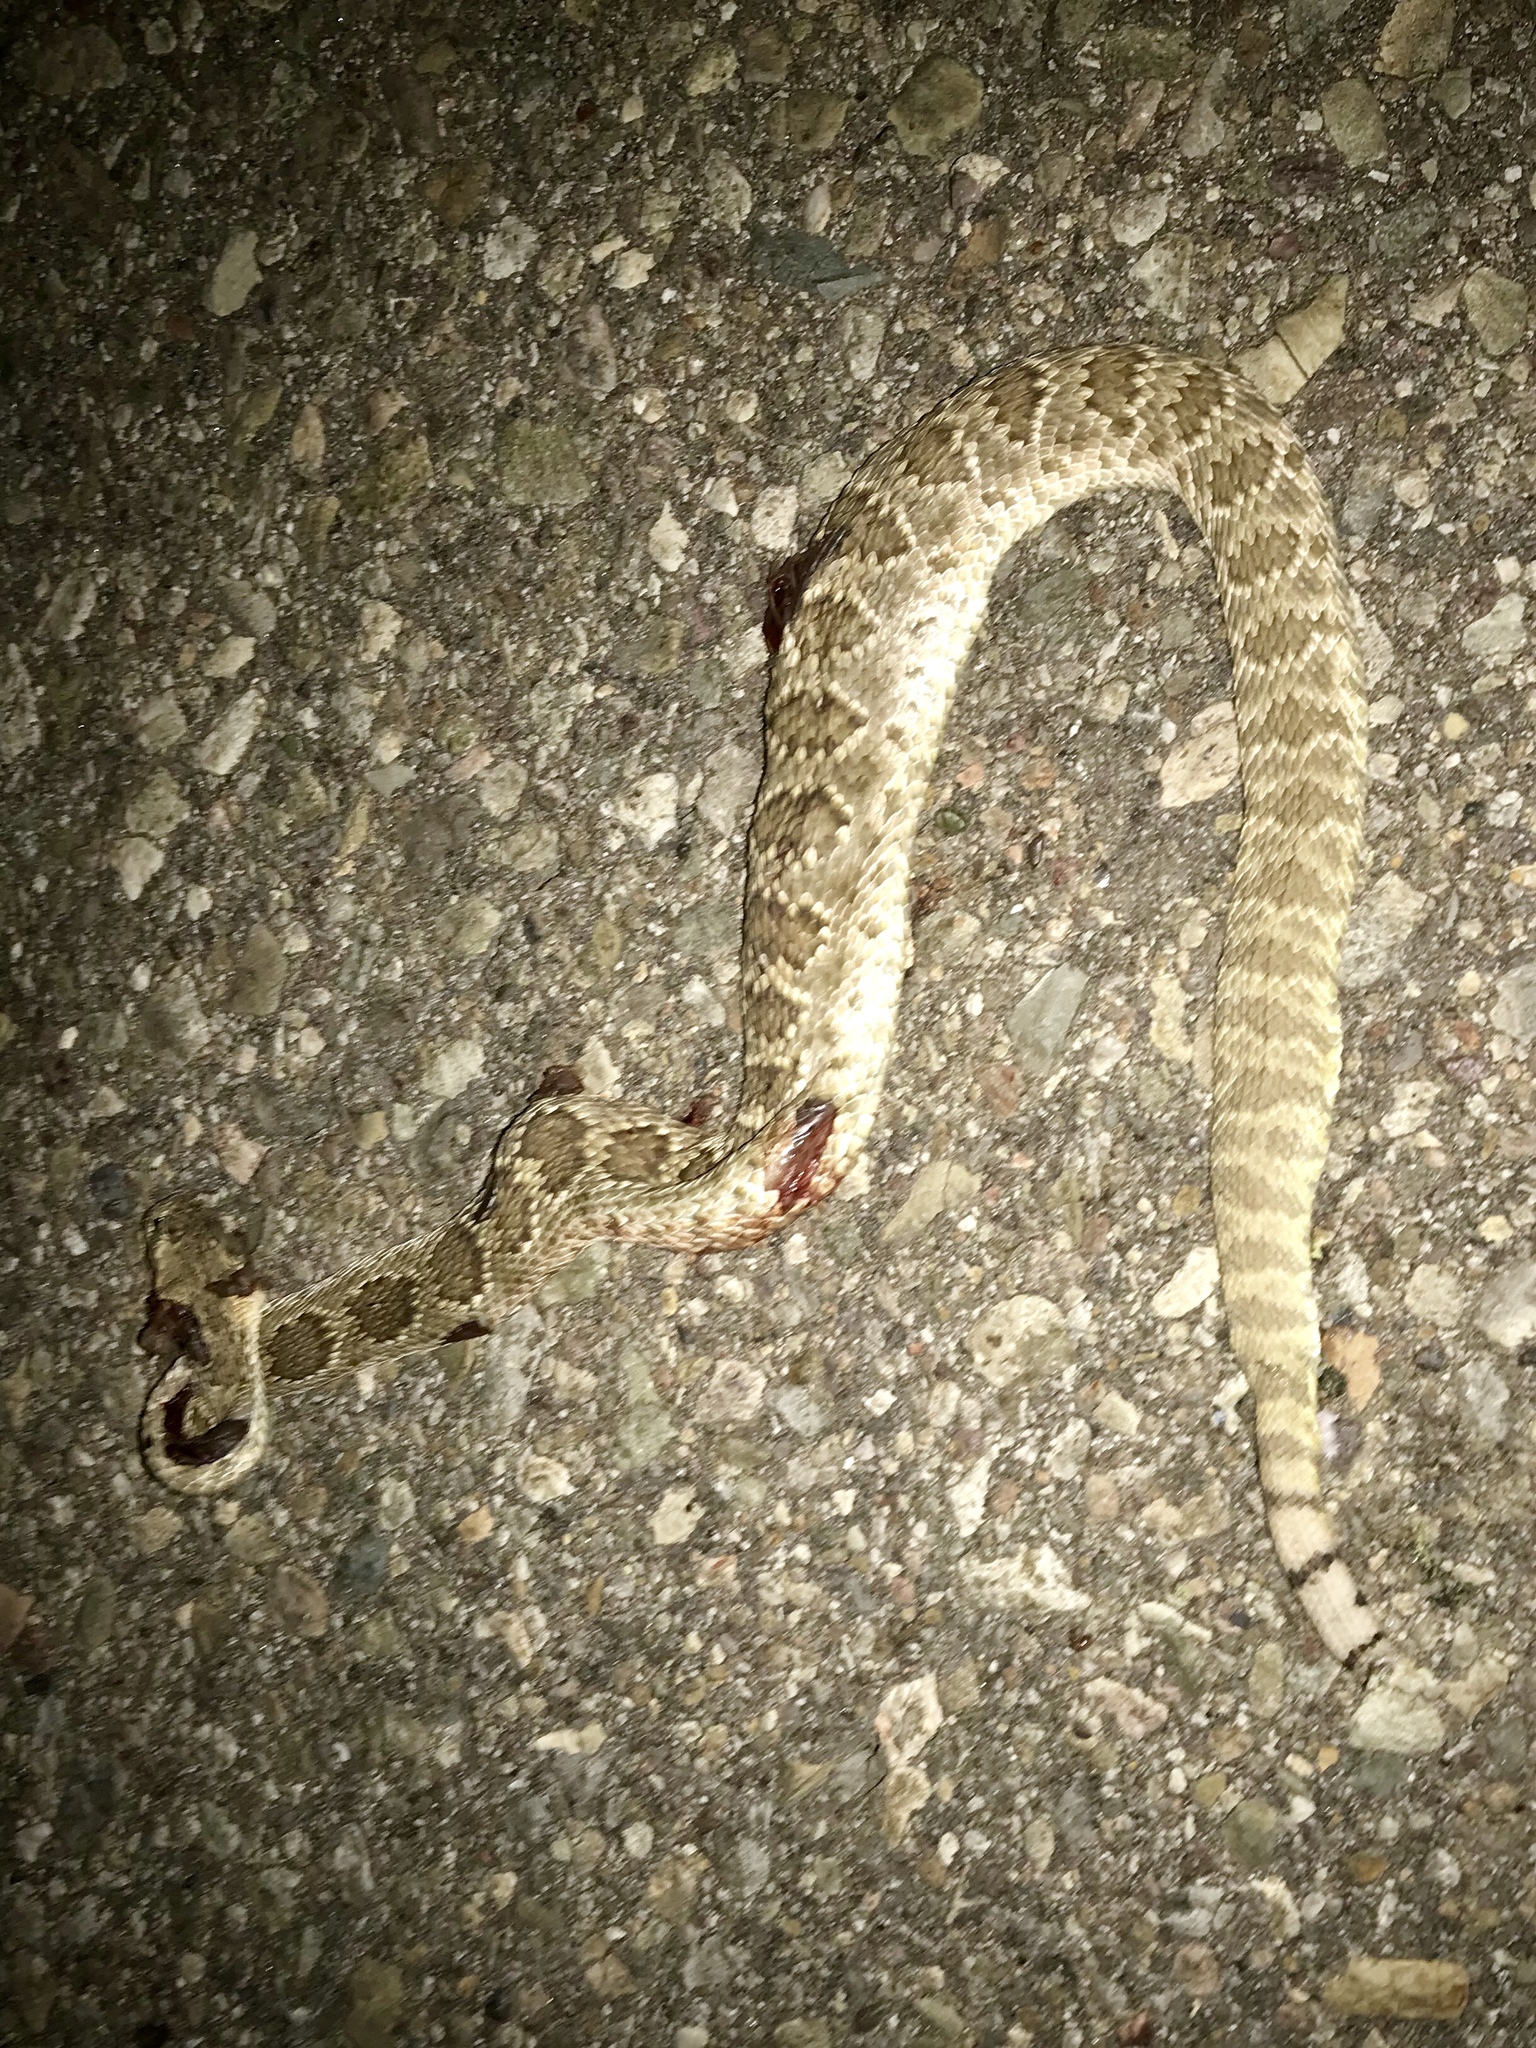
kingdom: Animalia
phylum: Chordata
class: Squamata
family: Viperidae
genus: Crotalus
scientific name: Crotalus scutulatus
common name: Scutulatus
